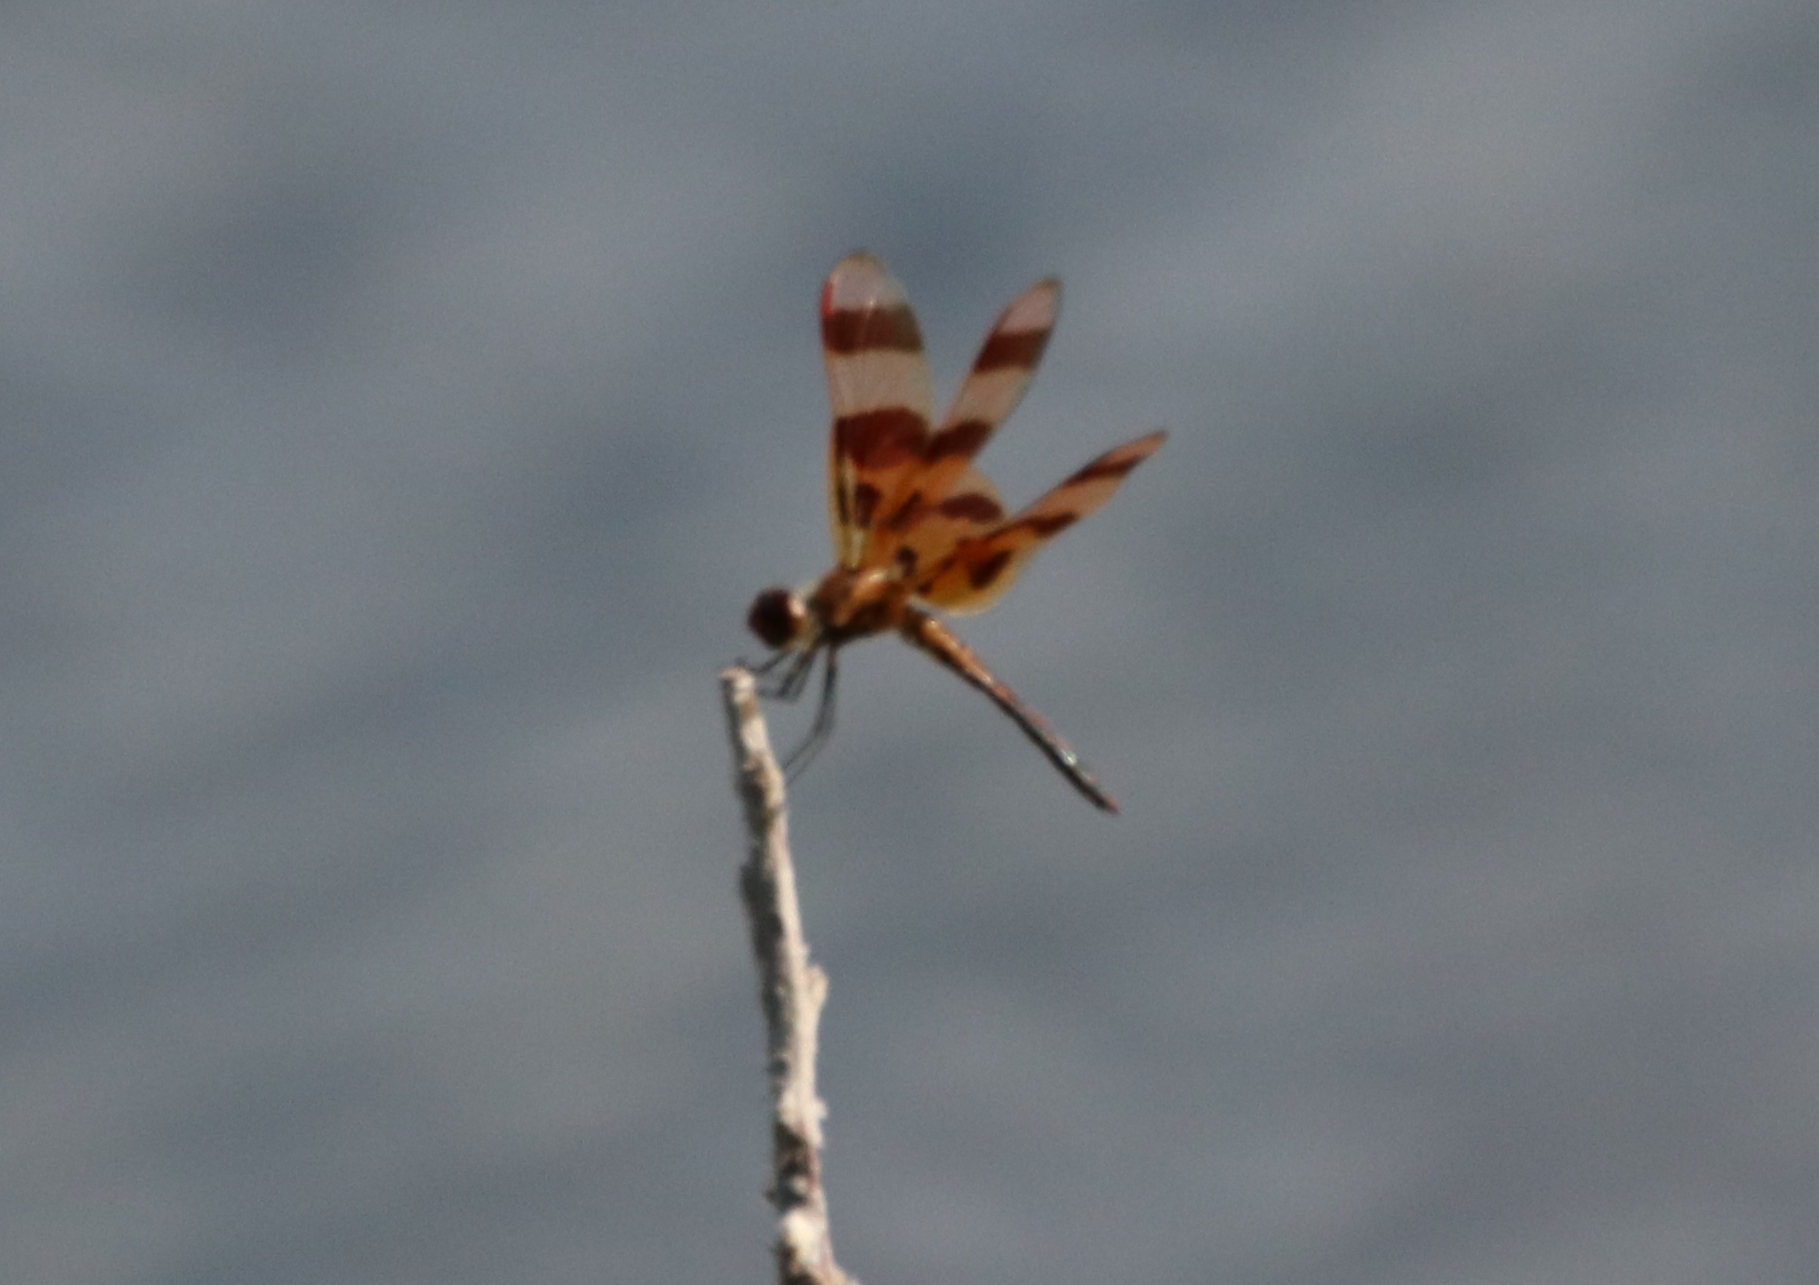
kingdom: Animalia
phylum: Arthropoda
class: Insecta
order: Odonata
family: Libellulidae
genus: Celithemis
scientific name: Celithemis eponina
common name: Halloween pennant
